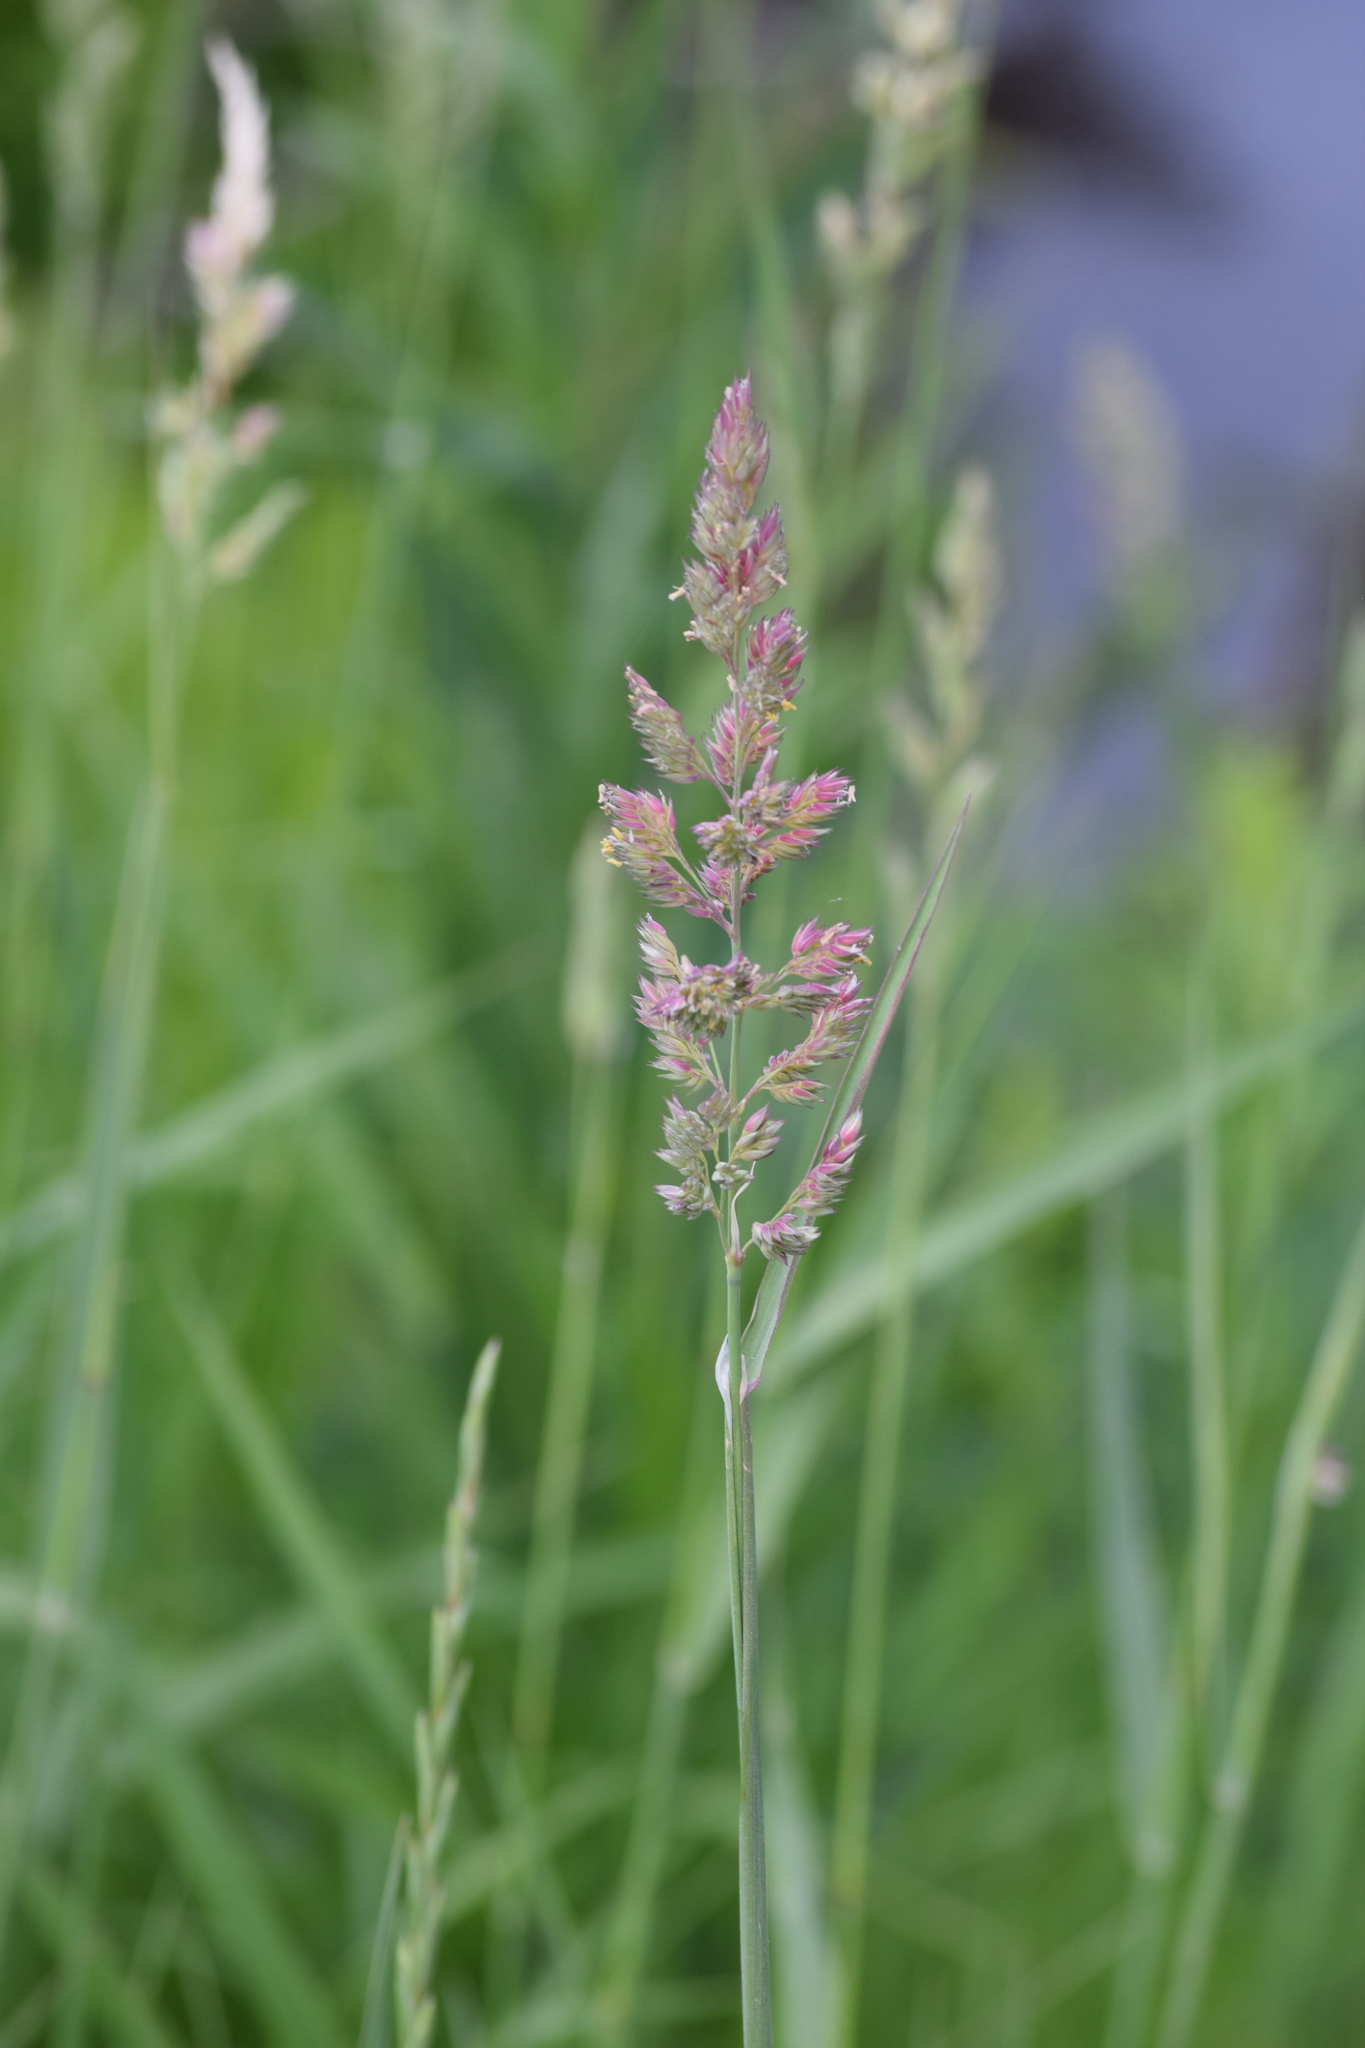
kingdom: Plantae
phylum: Tracheophyta
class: Liliopsida
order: Poales
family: Poaceae
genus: Phalaris
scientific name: Phalaris arundinacea
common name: Reed canary-grass
